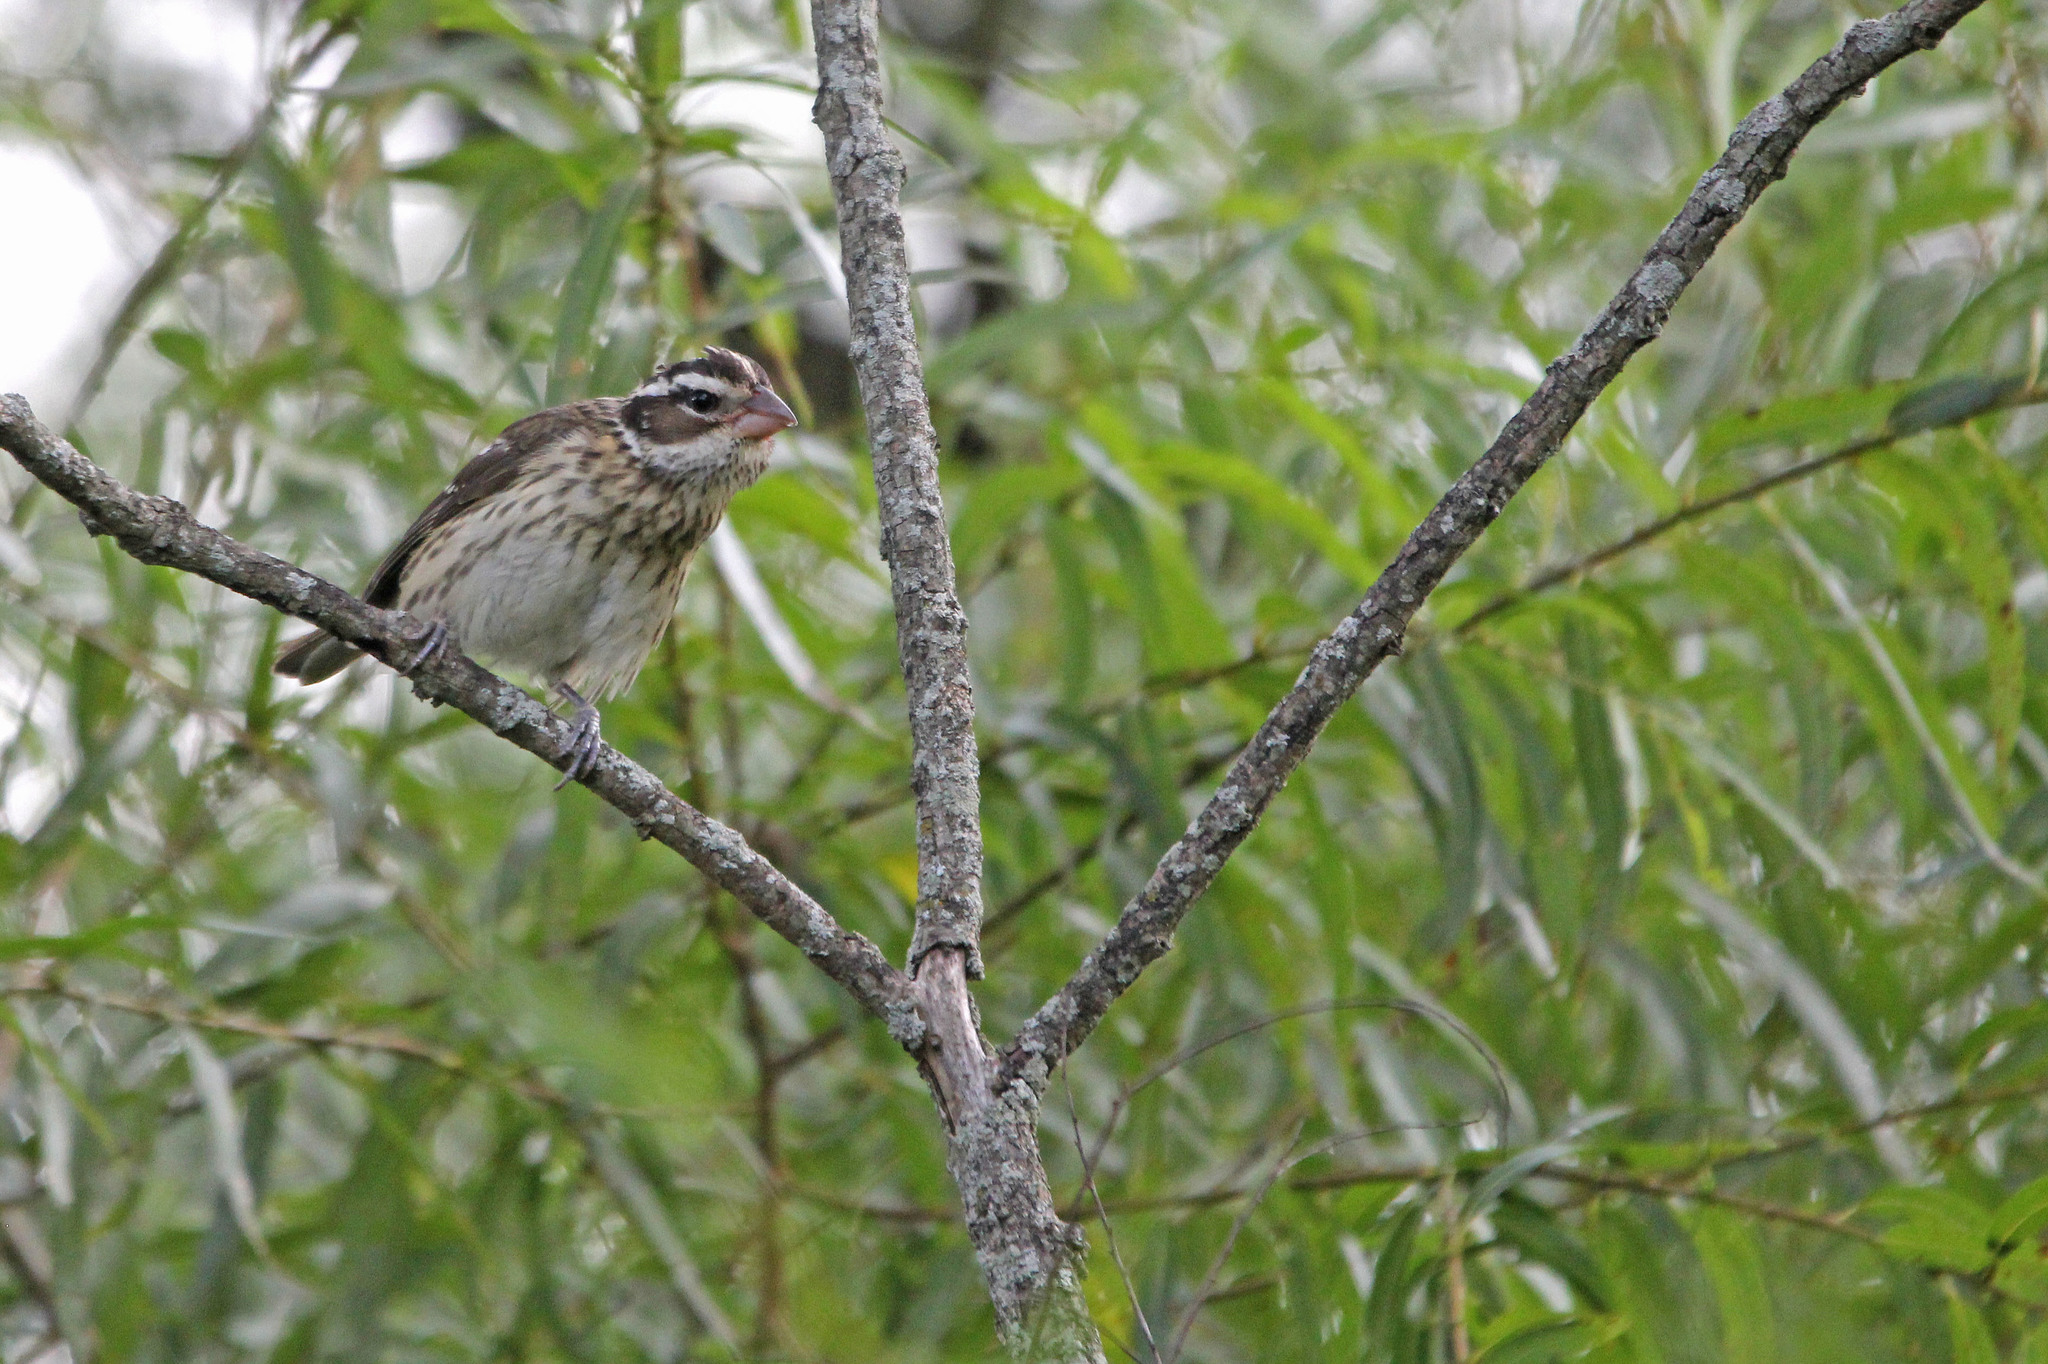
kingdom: Animalia
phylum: Chordata
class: Aves
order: Passeriformes
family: Cardinalidae
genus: Pheucticus
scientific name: Pheucticus ludovicianus
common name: Rose-breasted grosbeak
